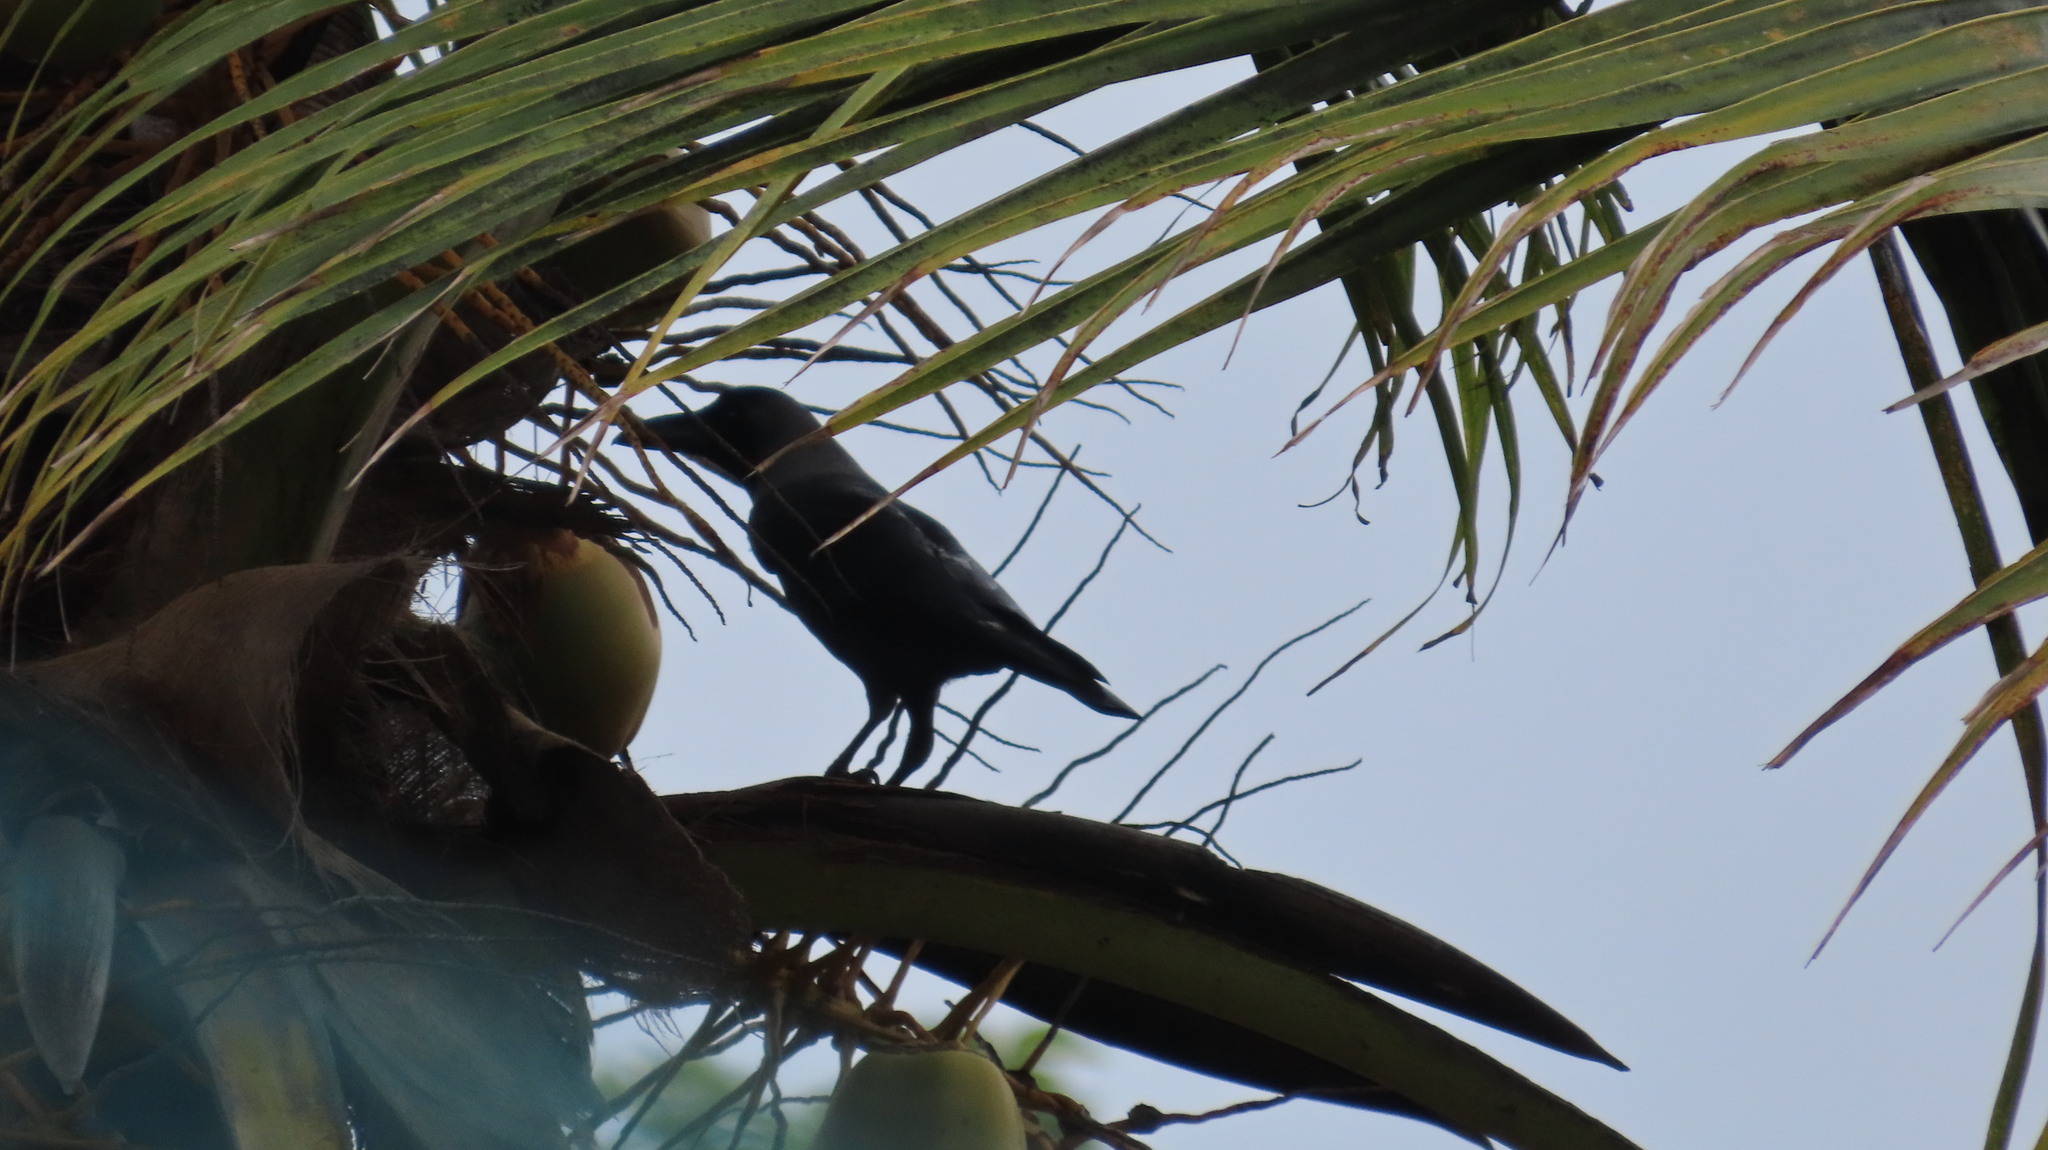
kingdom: Animalia
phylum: Chordata
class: Aves
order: Passeriformes
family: Corvidae
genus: Corvus
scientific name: Corvus splendens
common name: House crow
